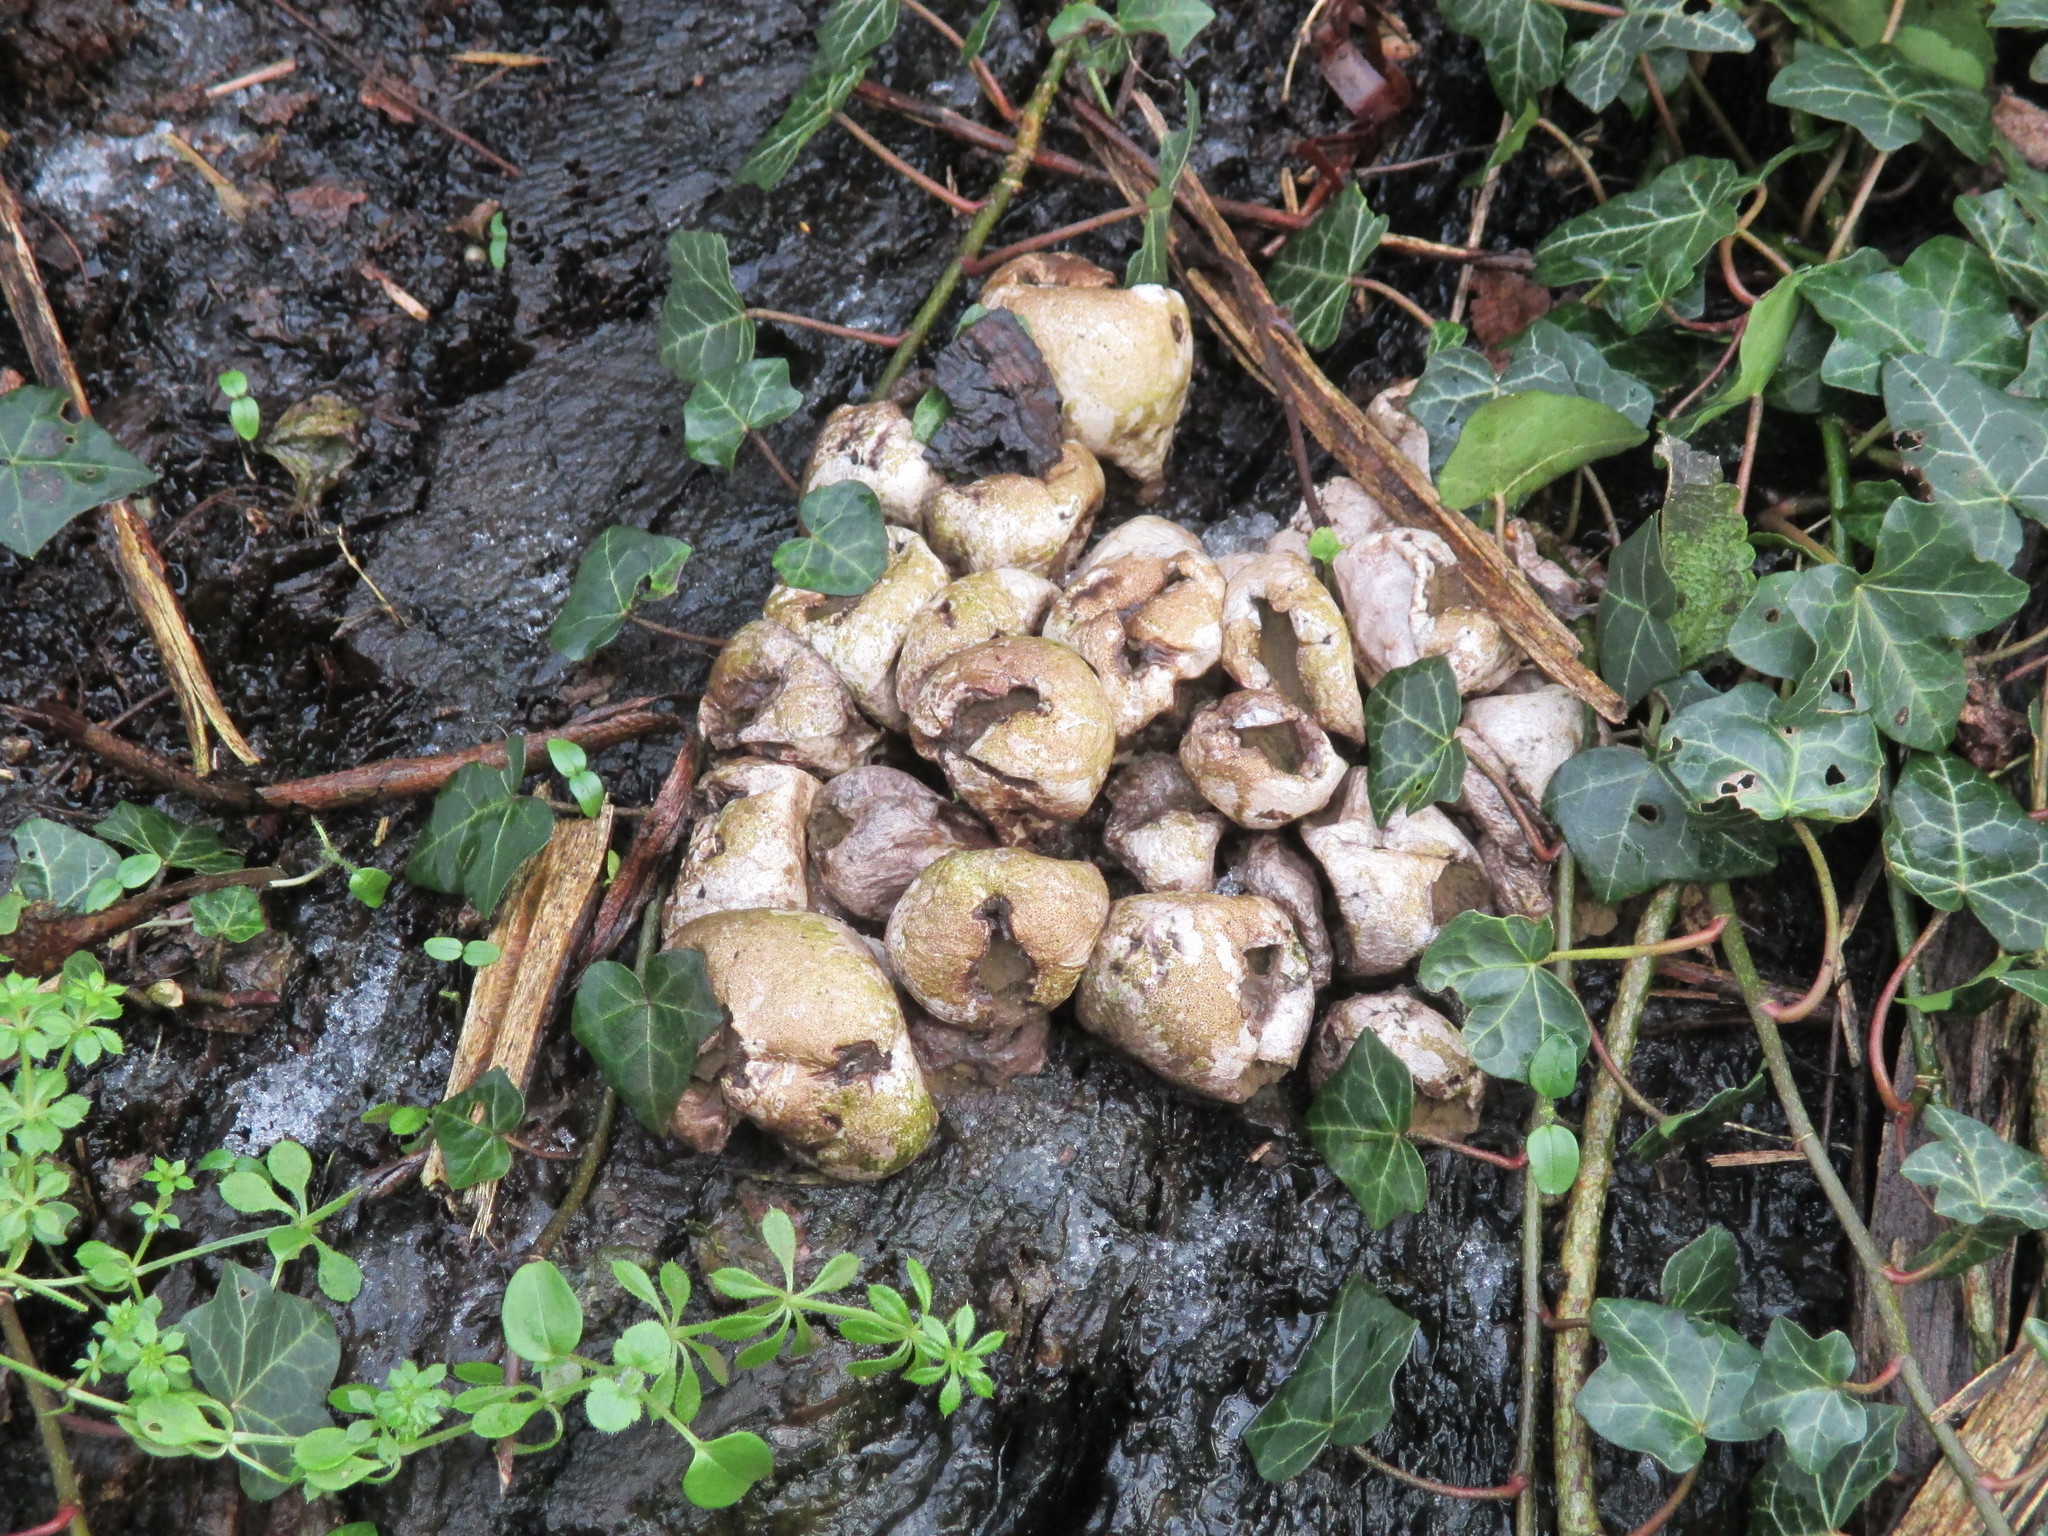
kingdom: Fungi
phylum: Basidiomycota
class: Agaricomycetes
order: Agaricales
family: Lycoperdaceae
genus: Apioperdon
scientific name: Apioperdon pyriforme
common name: Pear-shaped puffball
